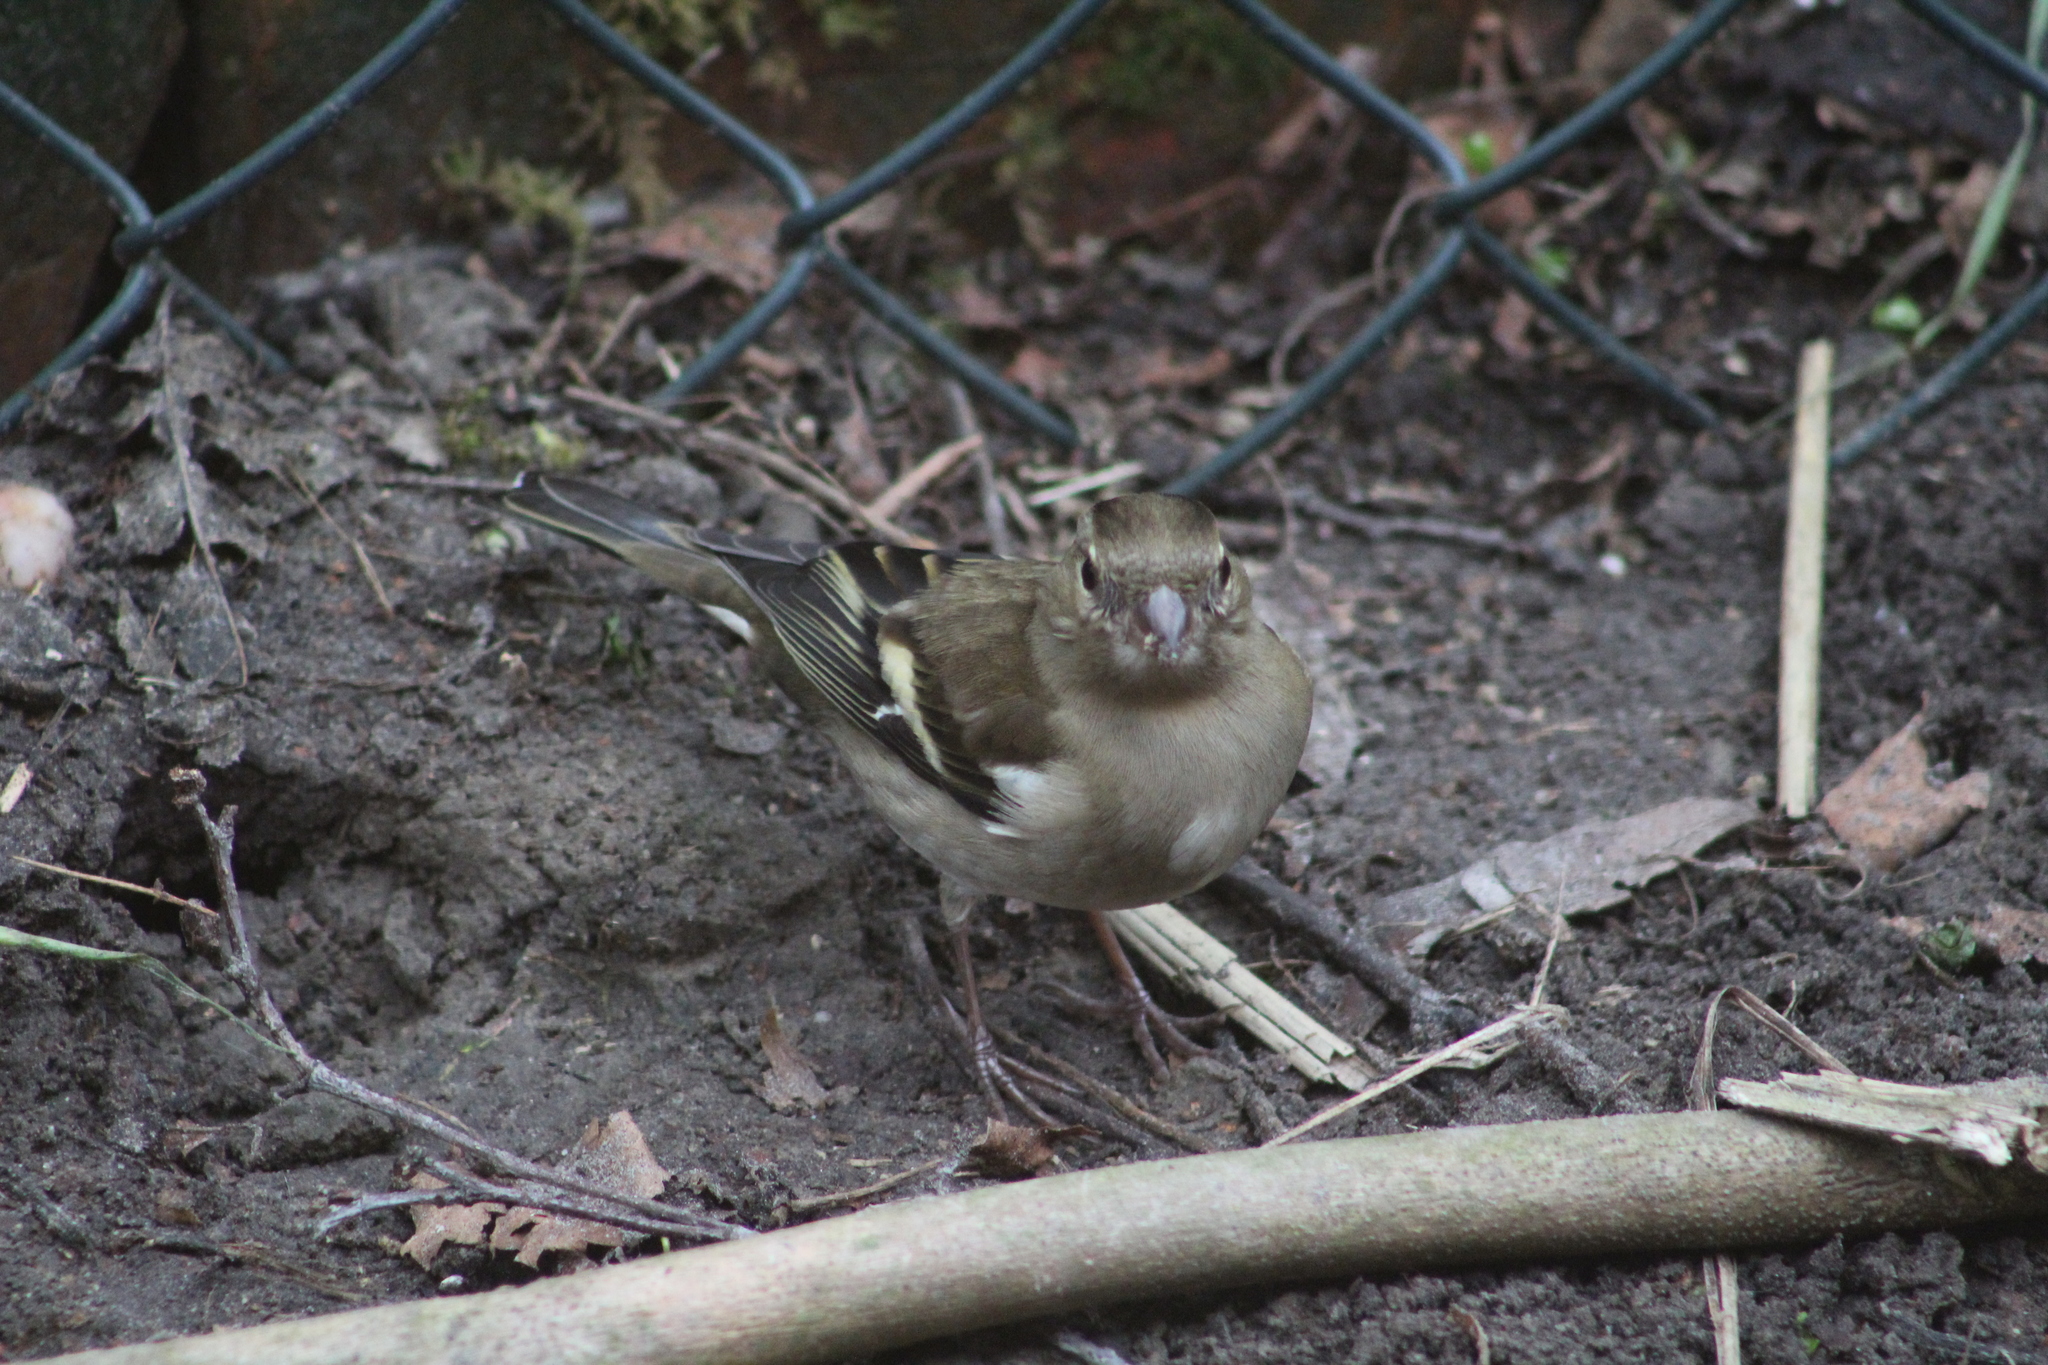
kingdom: Animalia
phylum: Chordata
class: Aves
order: Passeriformes
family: Fringillidae
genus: Fringilla
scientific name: Fringilla coelebs
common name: Common chaffinch
